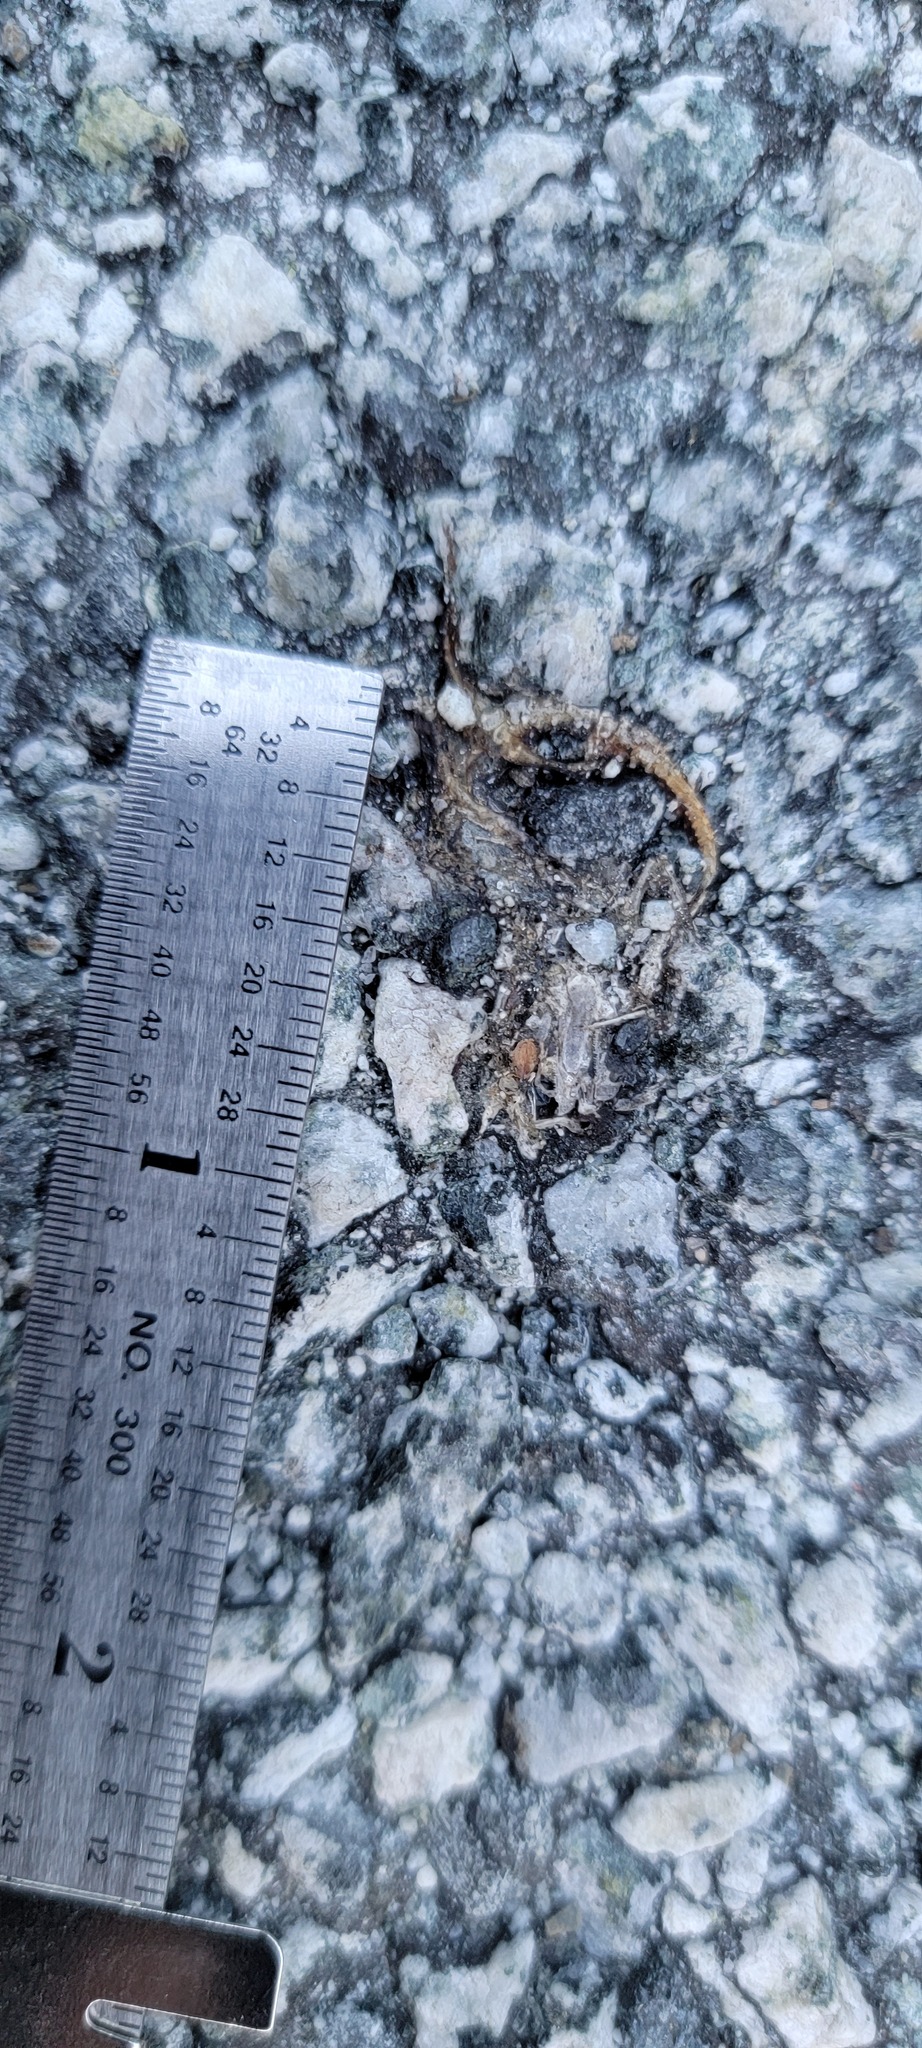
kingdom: Animalia
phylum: Chordata
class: Amphibia
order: Caudata
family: Salamandridae
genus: Taricha
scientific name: Taricha
